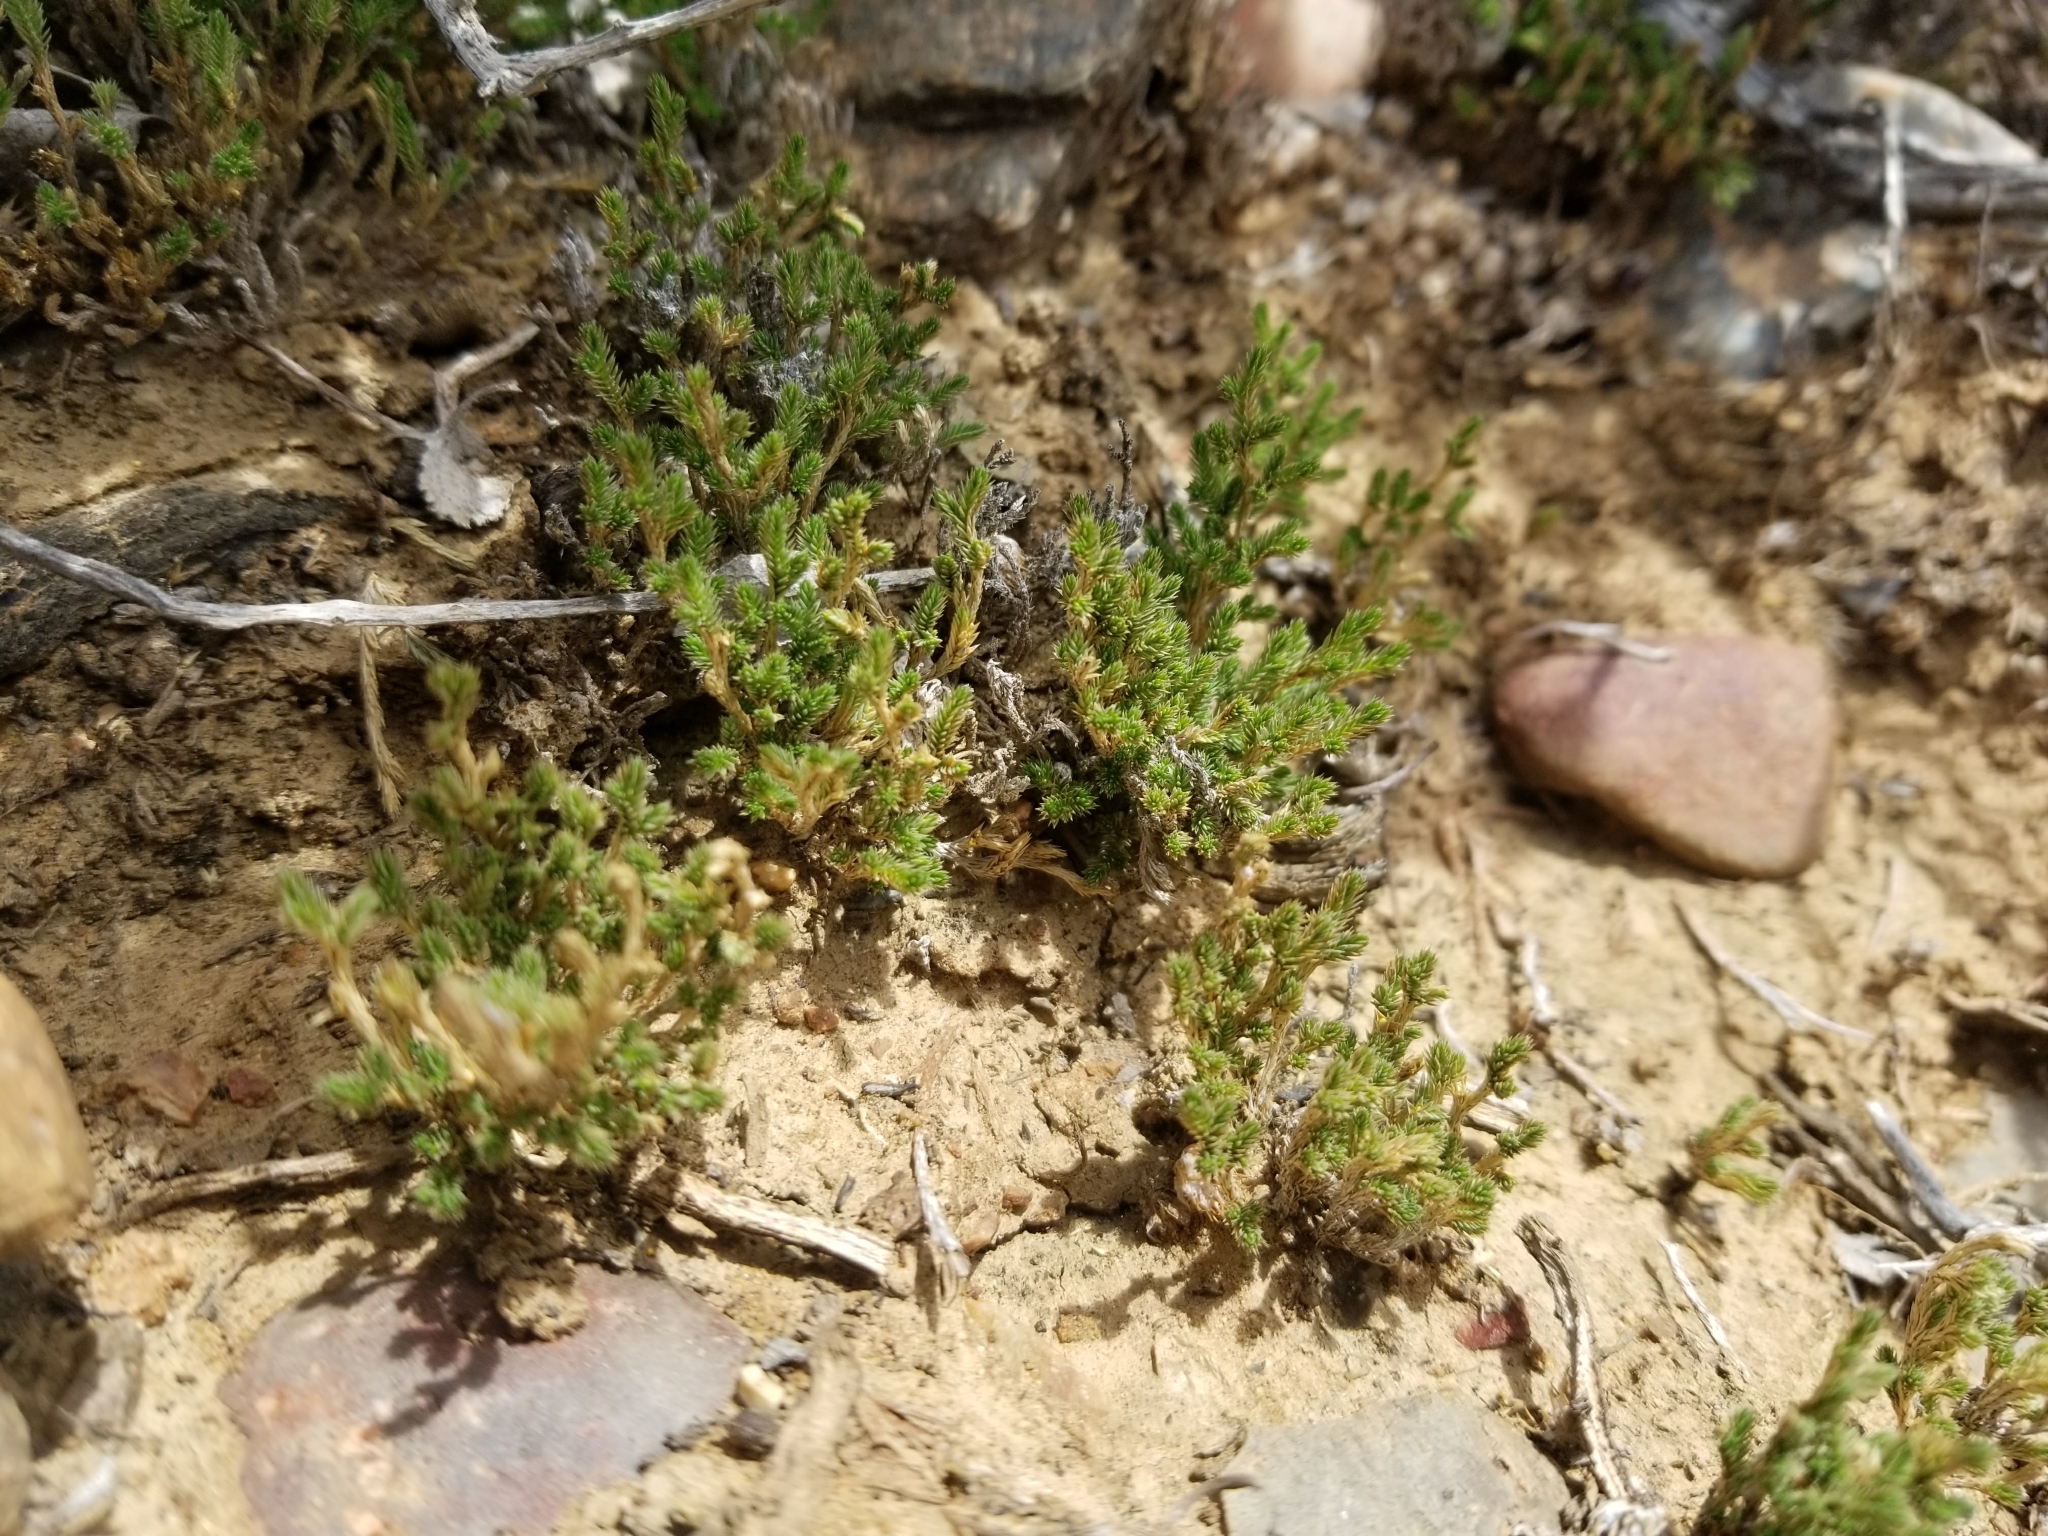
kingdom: Plantae
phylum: Tracheophyta
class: Lycopodiopsida
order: Selaginellales
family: Selaginellaceae
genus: Selaginella
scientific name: Selaginella bigelovii
